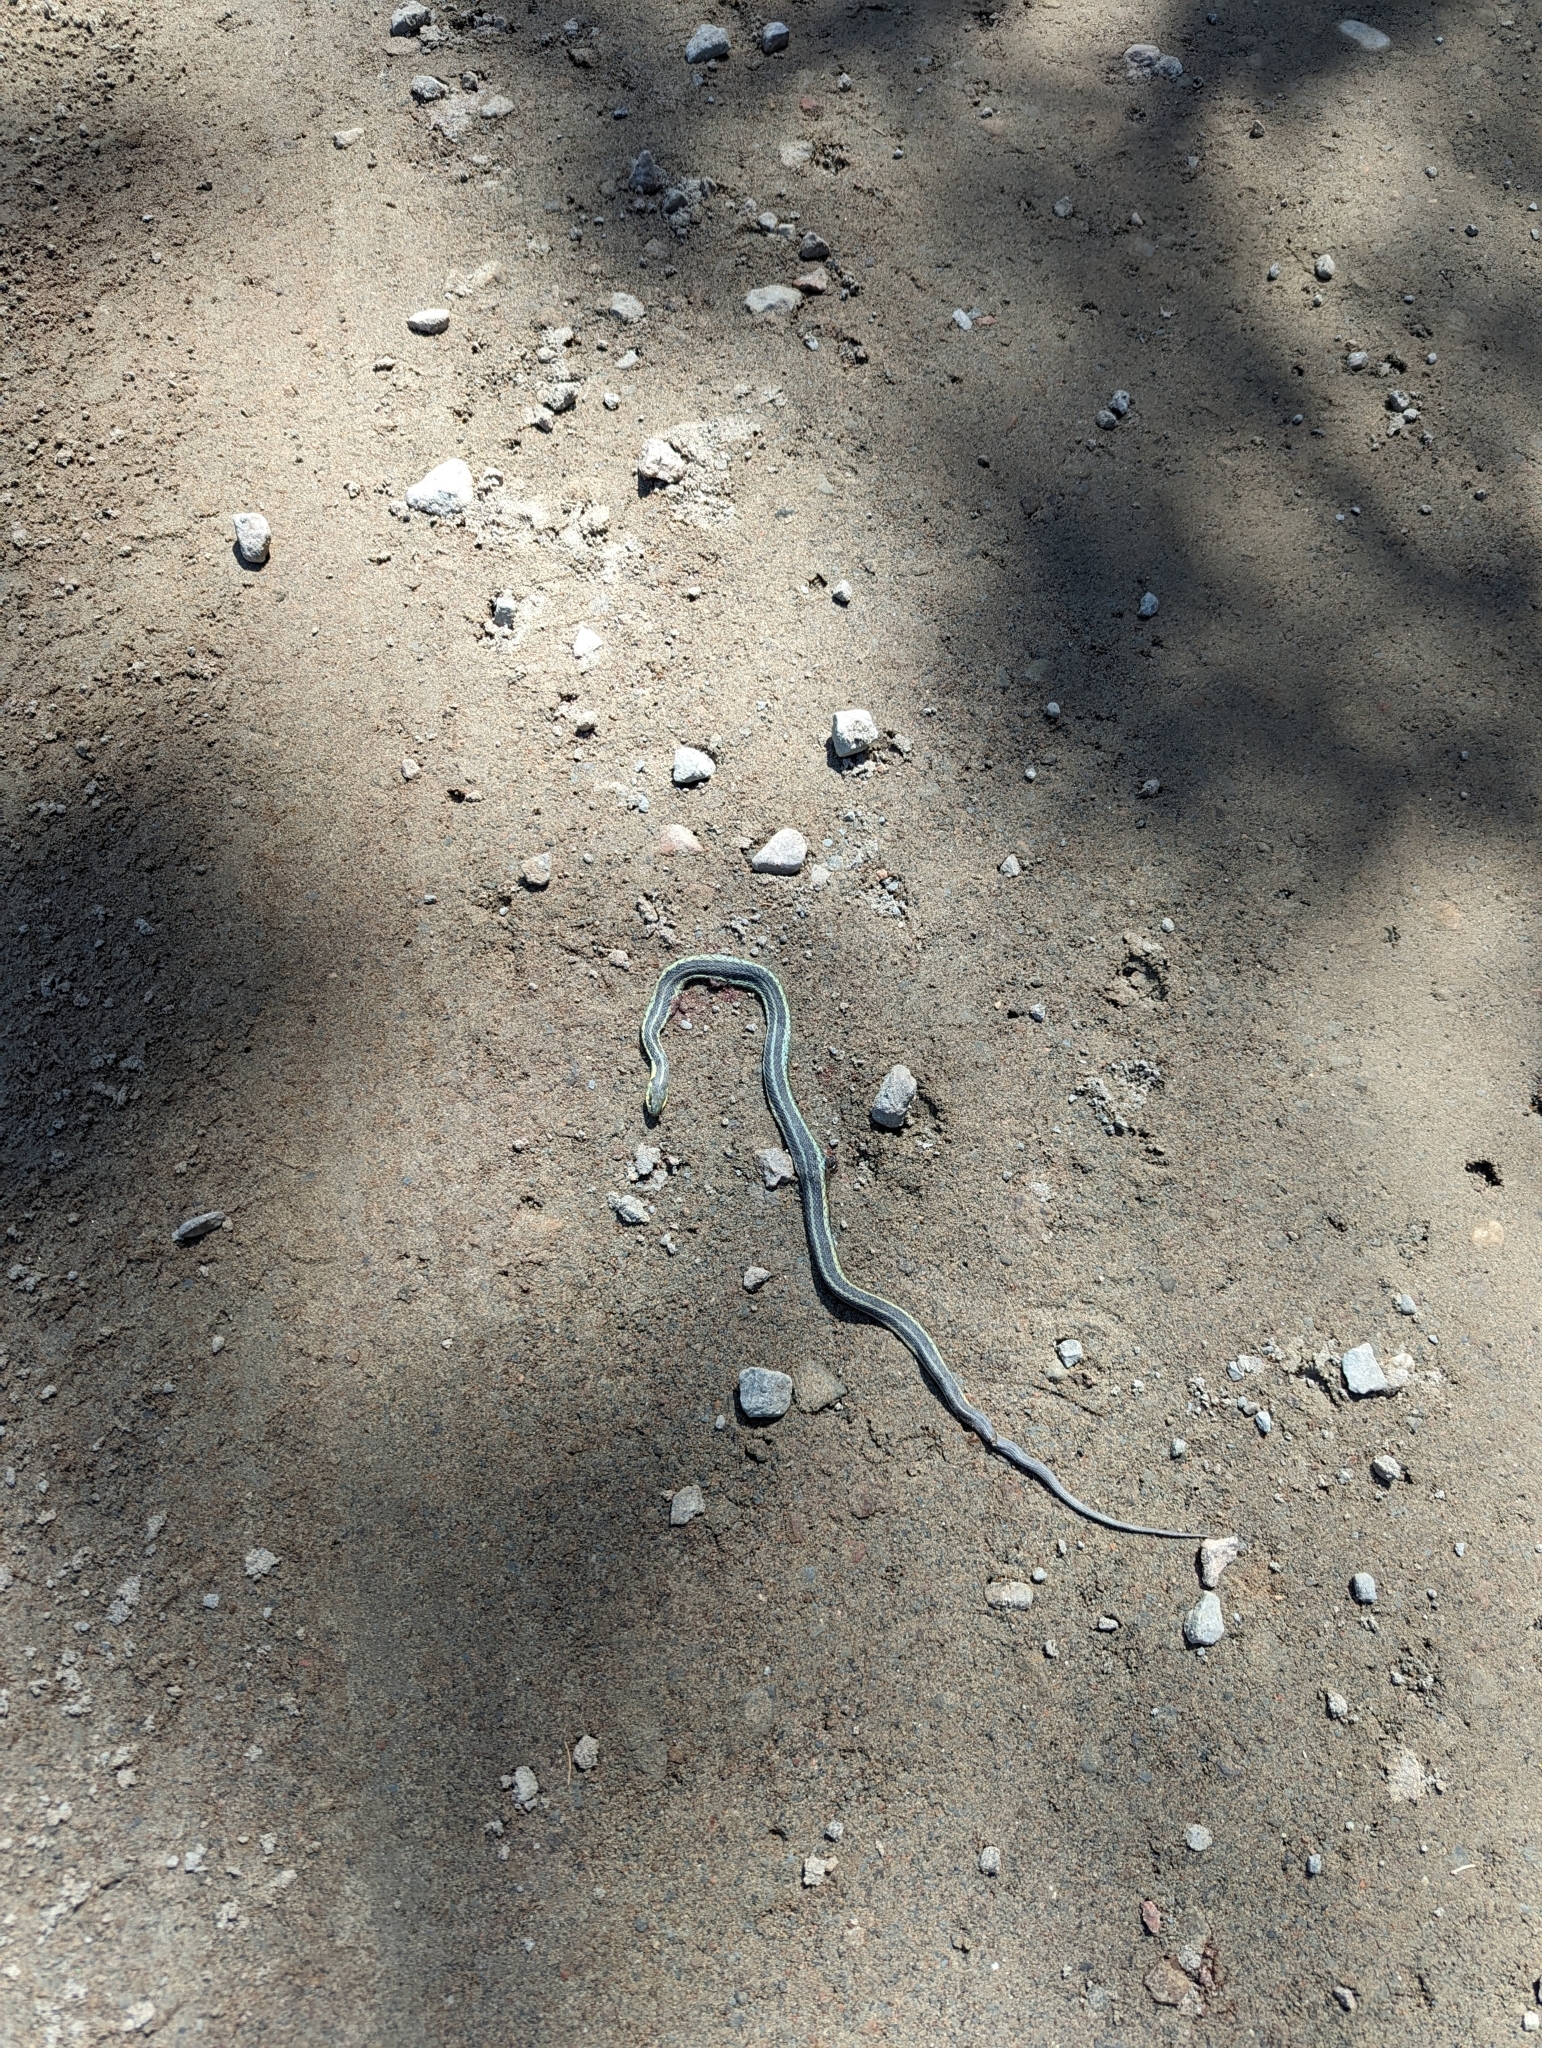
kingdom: Animalia
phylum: Chordata
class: Squamata
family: Colubridae
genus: Thamnophis
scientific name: Thamnophis sirtalis
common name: Common garter snake
